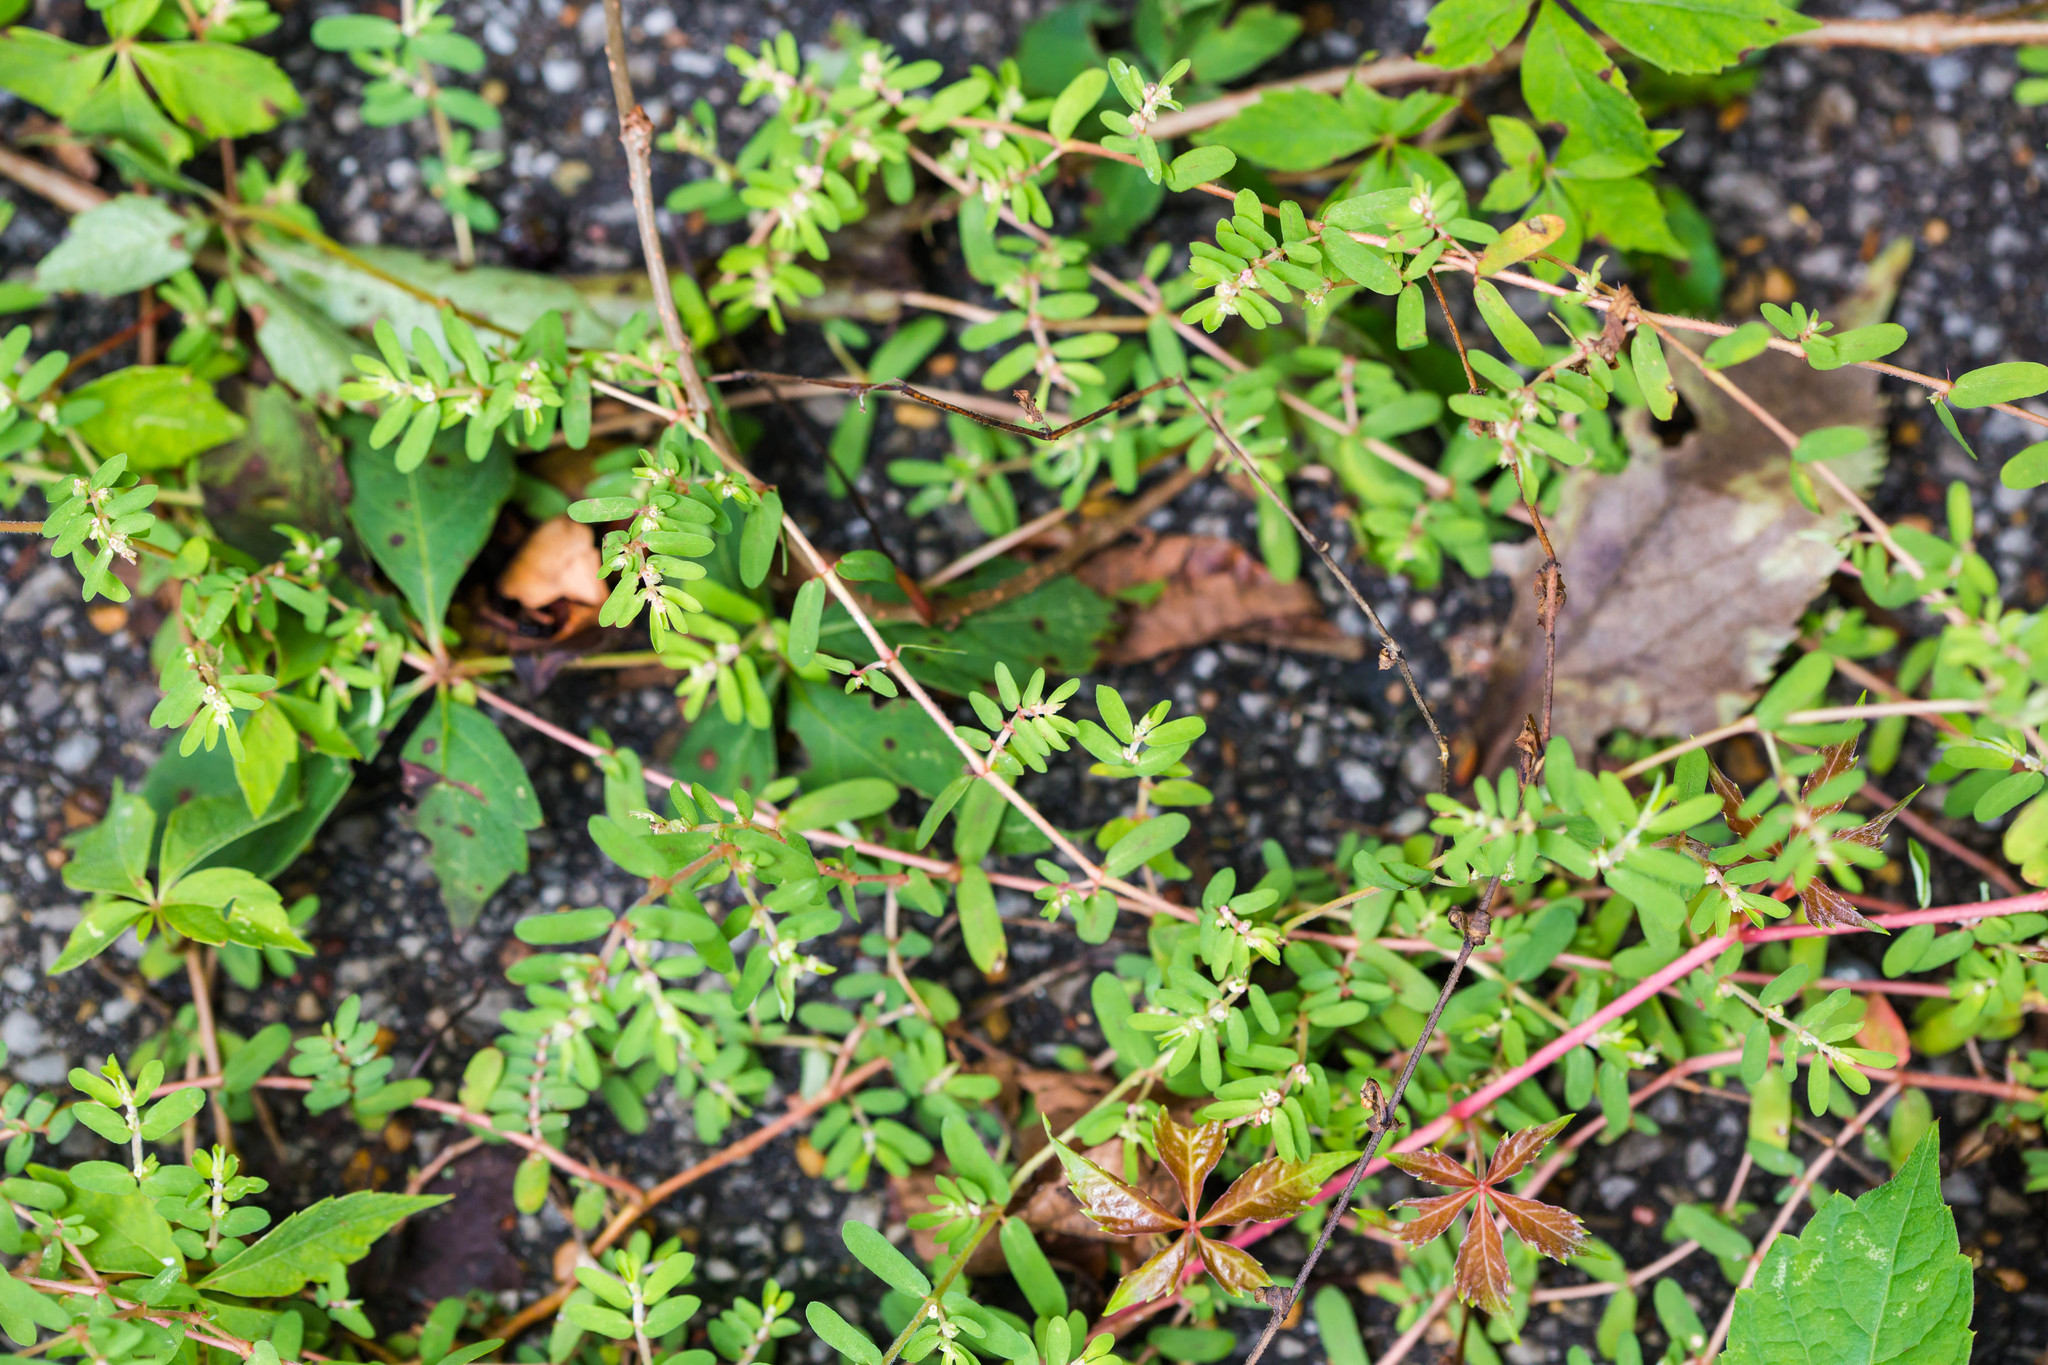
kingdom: Plantae
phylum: Tracheophyta
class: Magnoliopsida
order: Malpighiales
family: Euphorbiaceae
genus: Euphorbia
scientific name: Euphorbia maculata
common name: Spotted spurge
